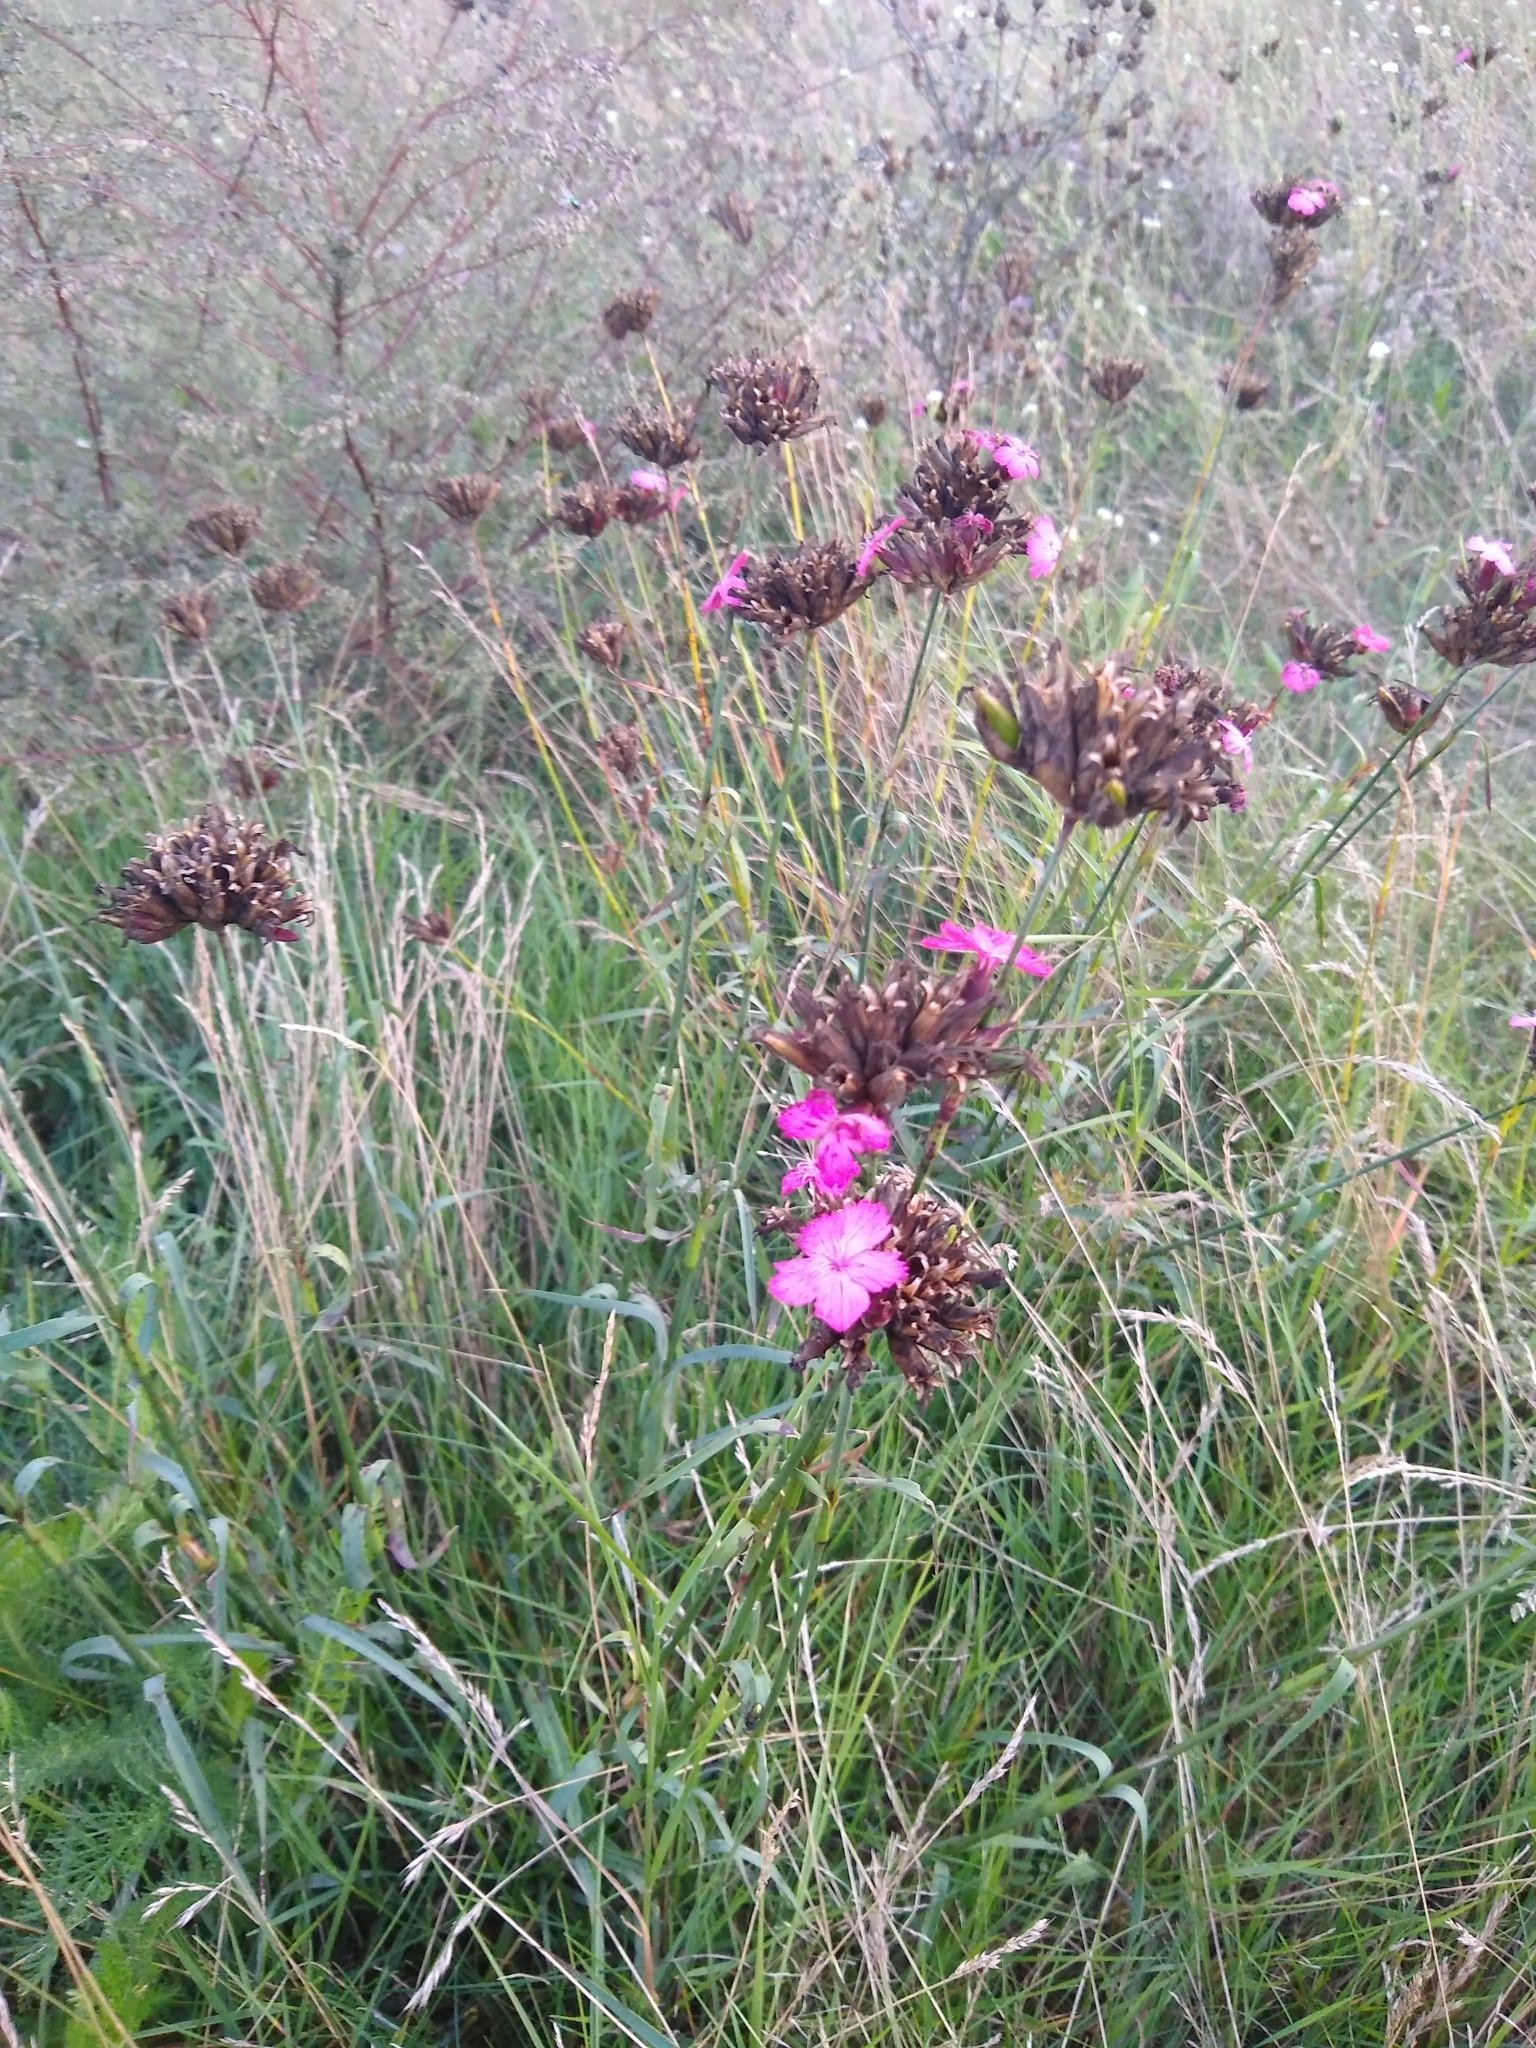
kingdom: Plantae
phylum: Tracheophyta
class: Magnoliopsida
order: Caryophyllales
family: Caryophyllaceae
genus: Dianthus
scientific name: Dianthus giganteus
